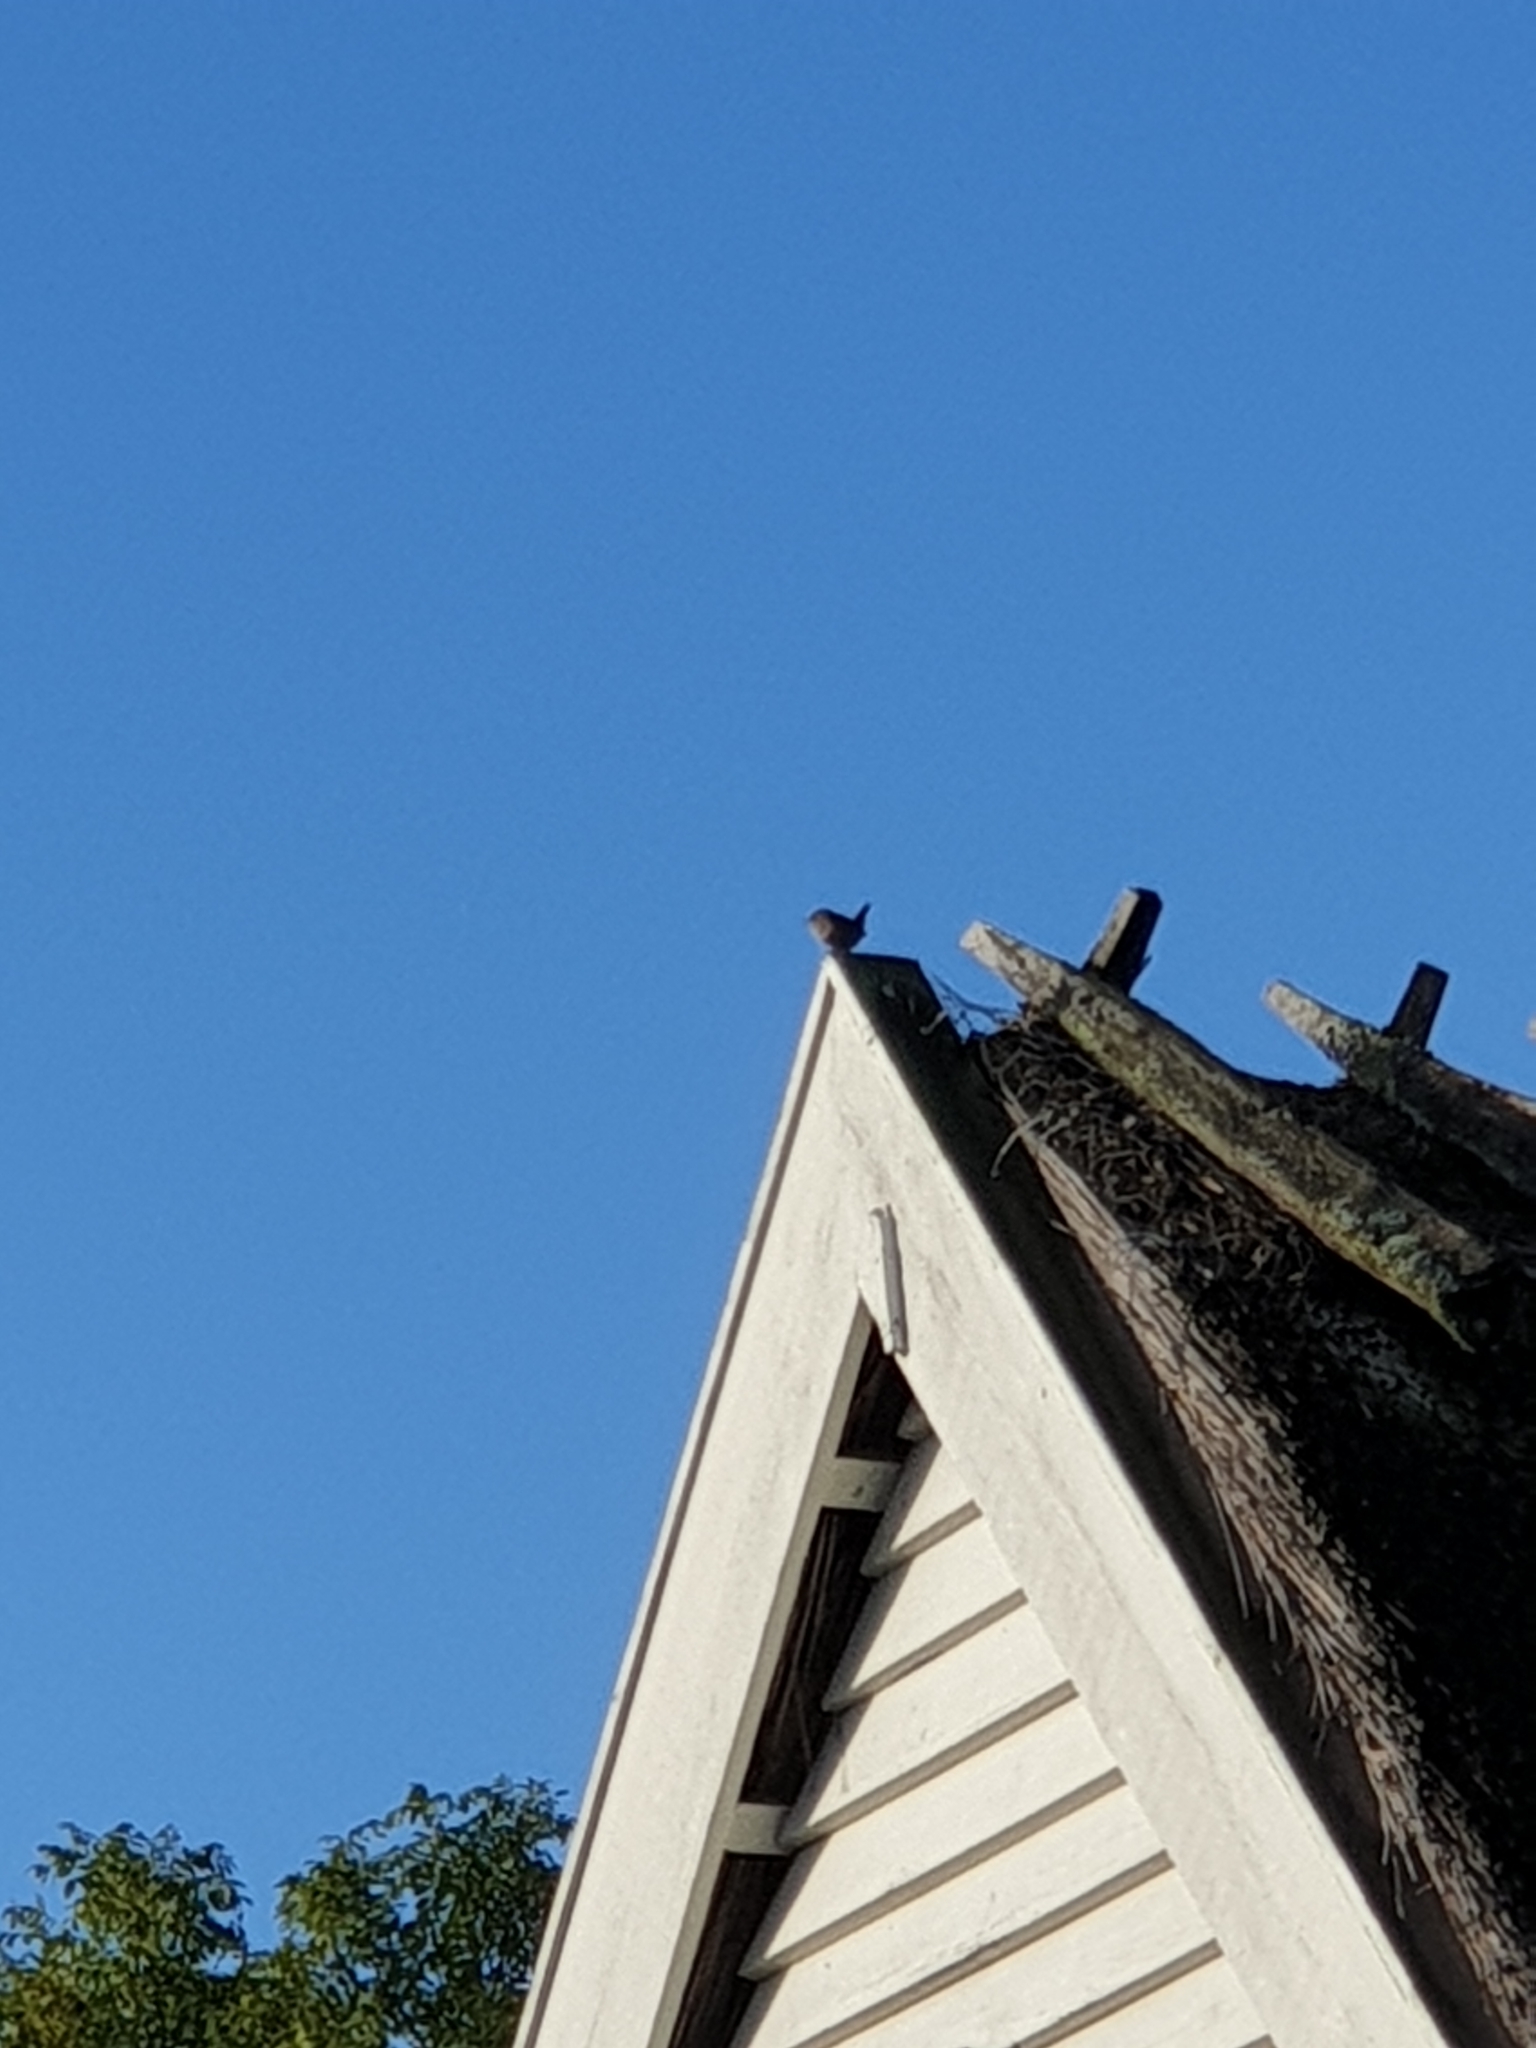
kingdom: Animalia
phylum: Chordata
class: Aves
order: Passeriformes
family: Troglodytidae
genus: Troglodytes
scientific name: Troglodytes troglodytes
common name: Eurasian wren
